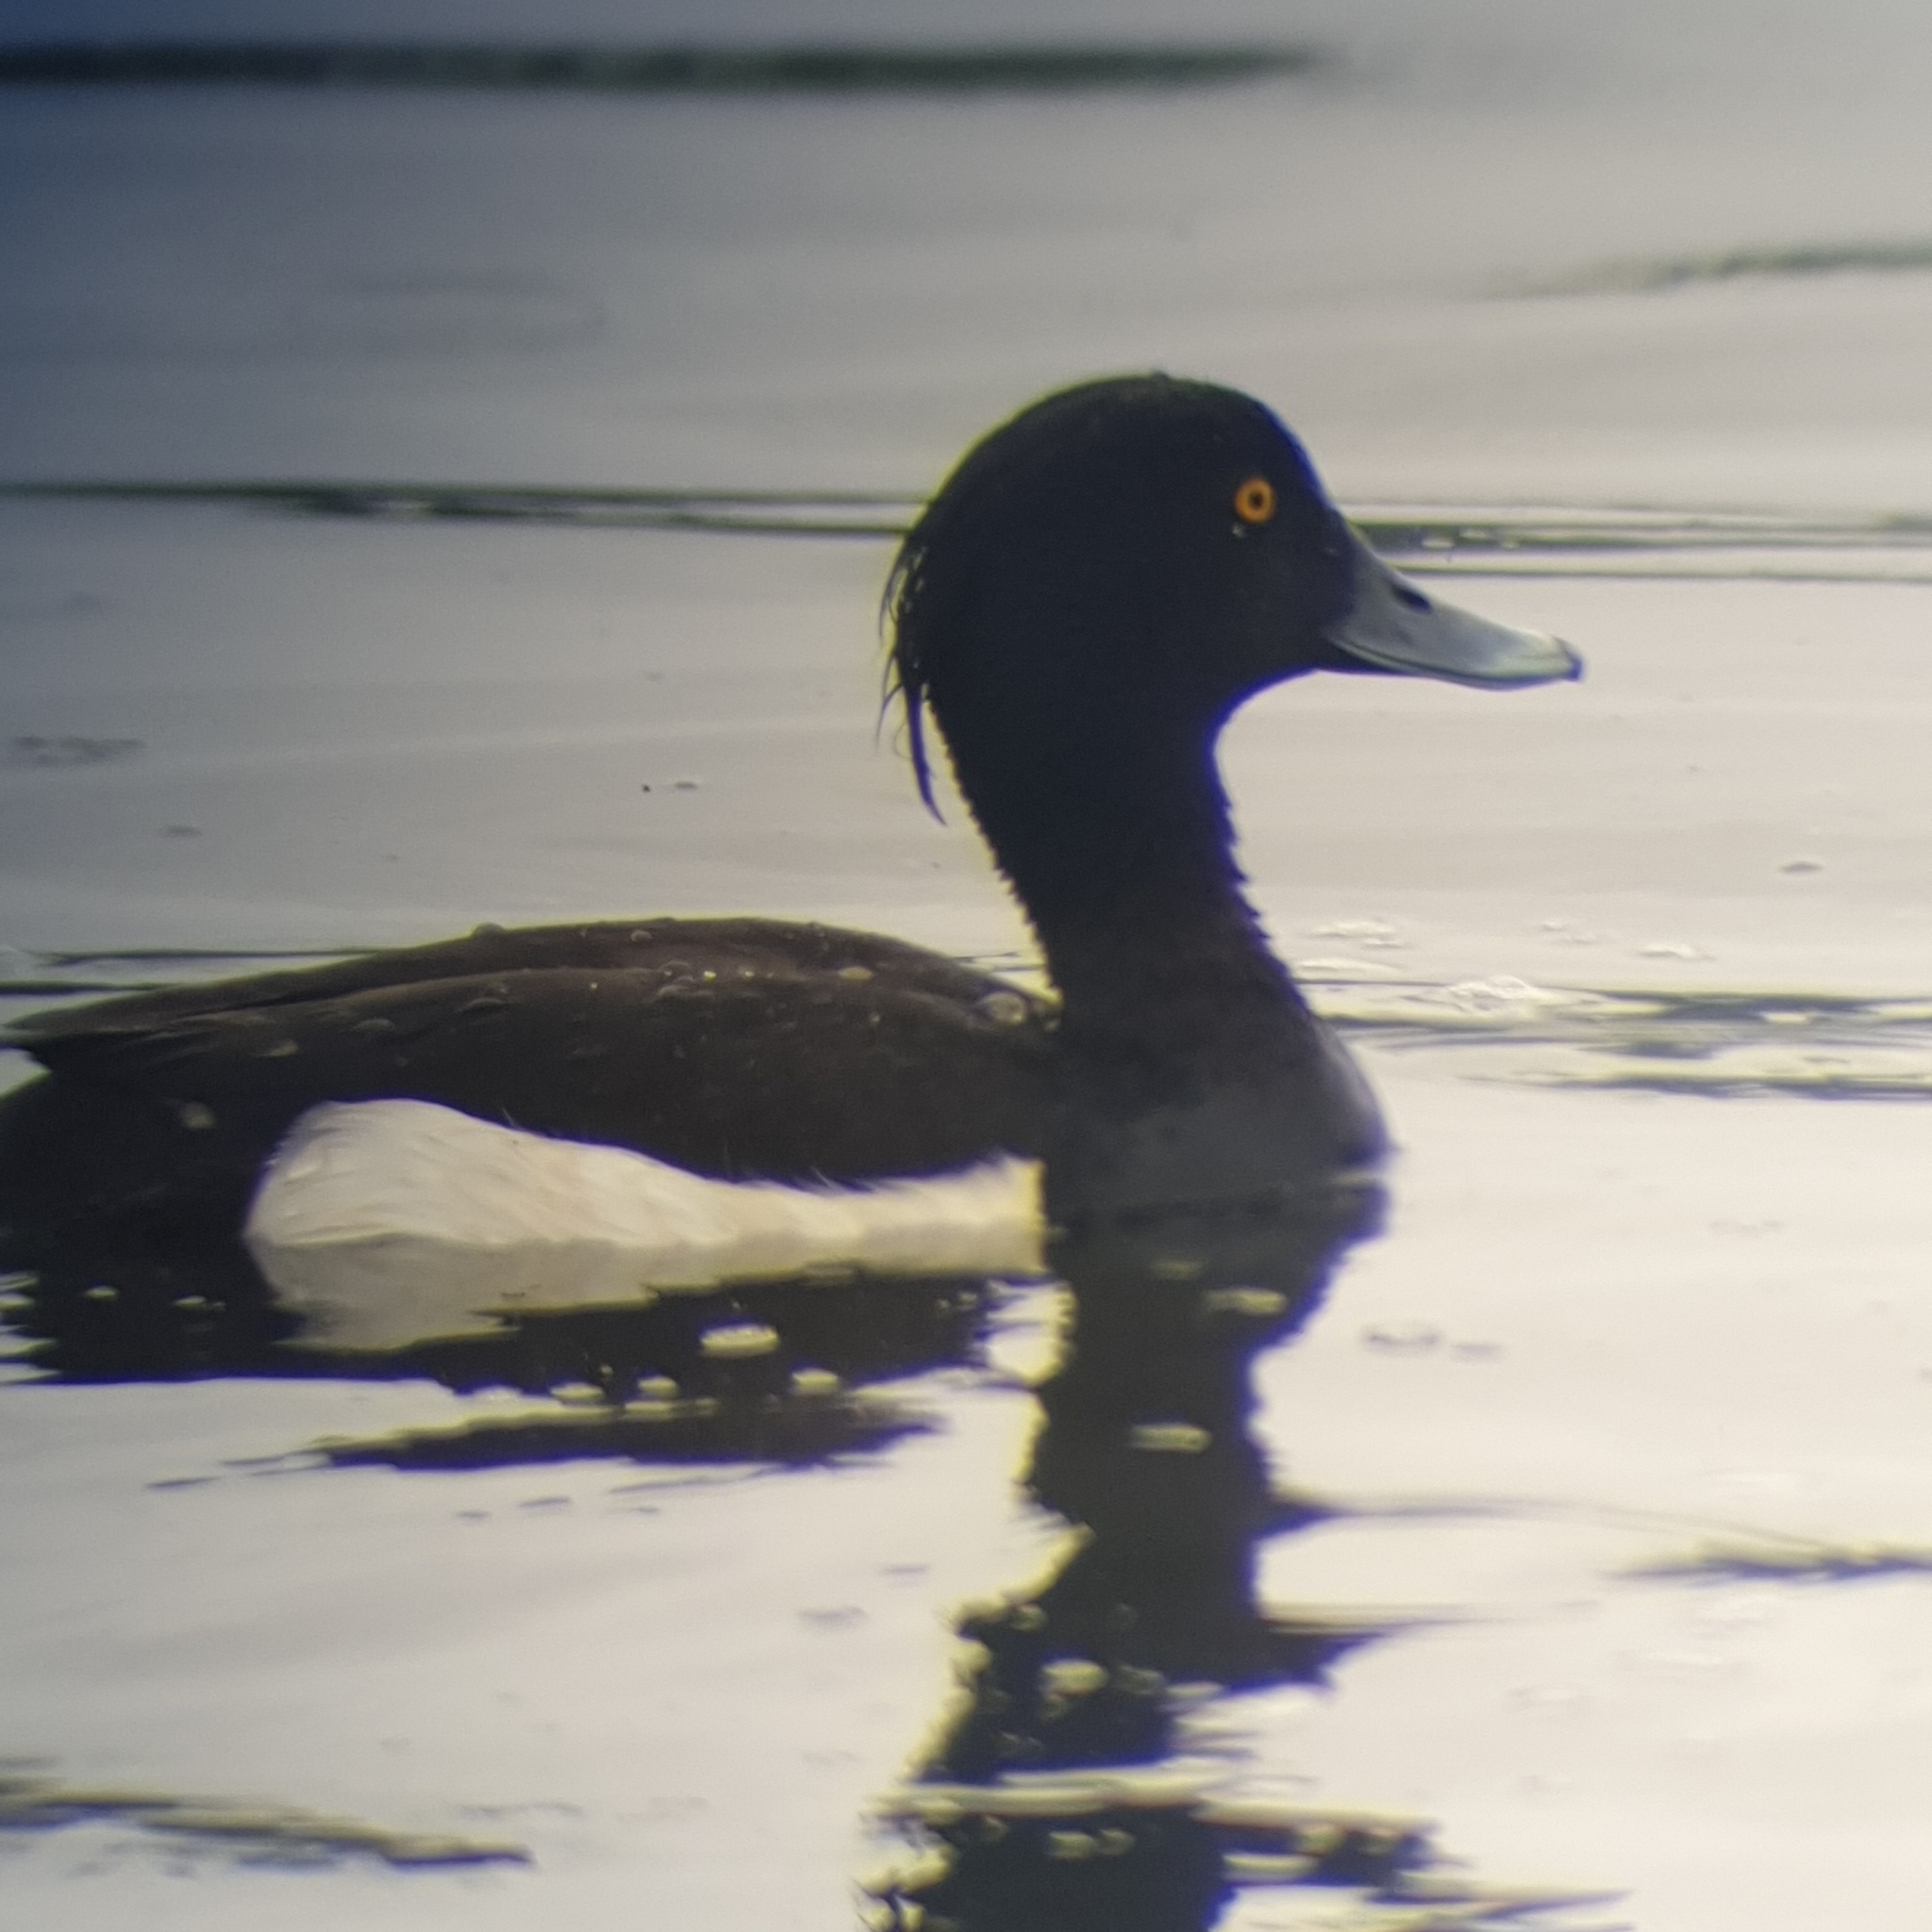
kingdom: Animalia
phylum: Chordata
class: Aves
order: Anseriformes
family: Anatidae
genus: Aythya
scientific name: Aythya fuligula
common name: Tufted duck
